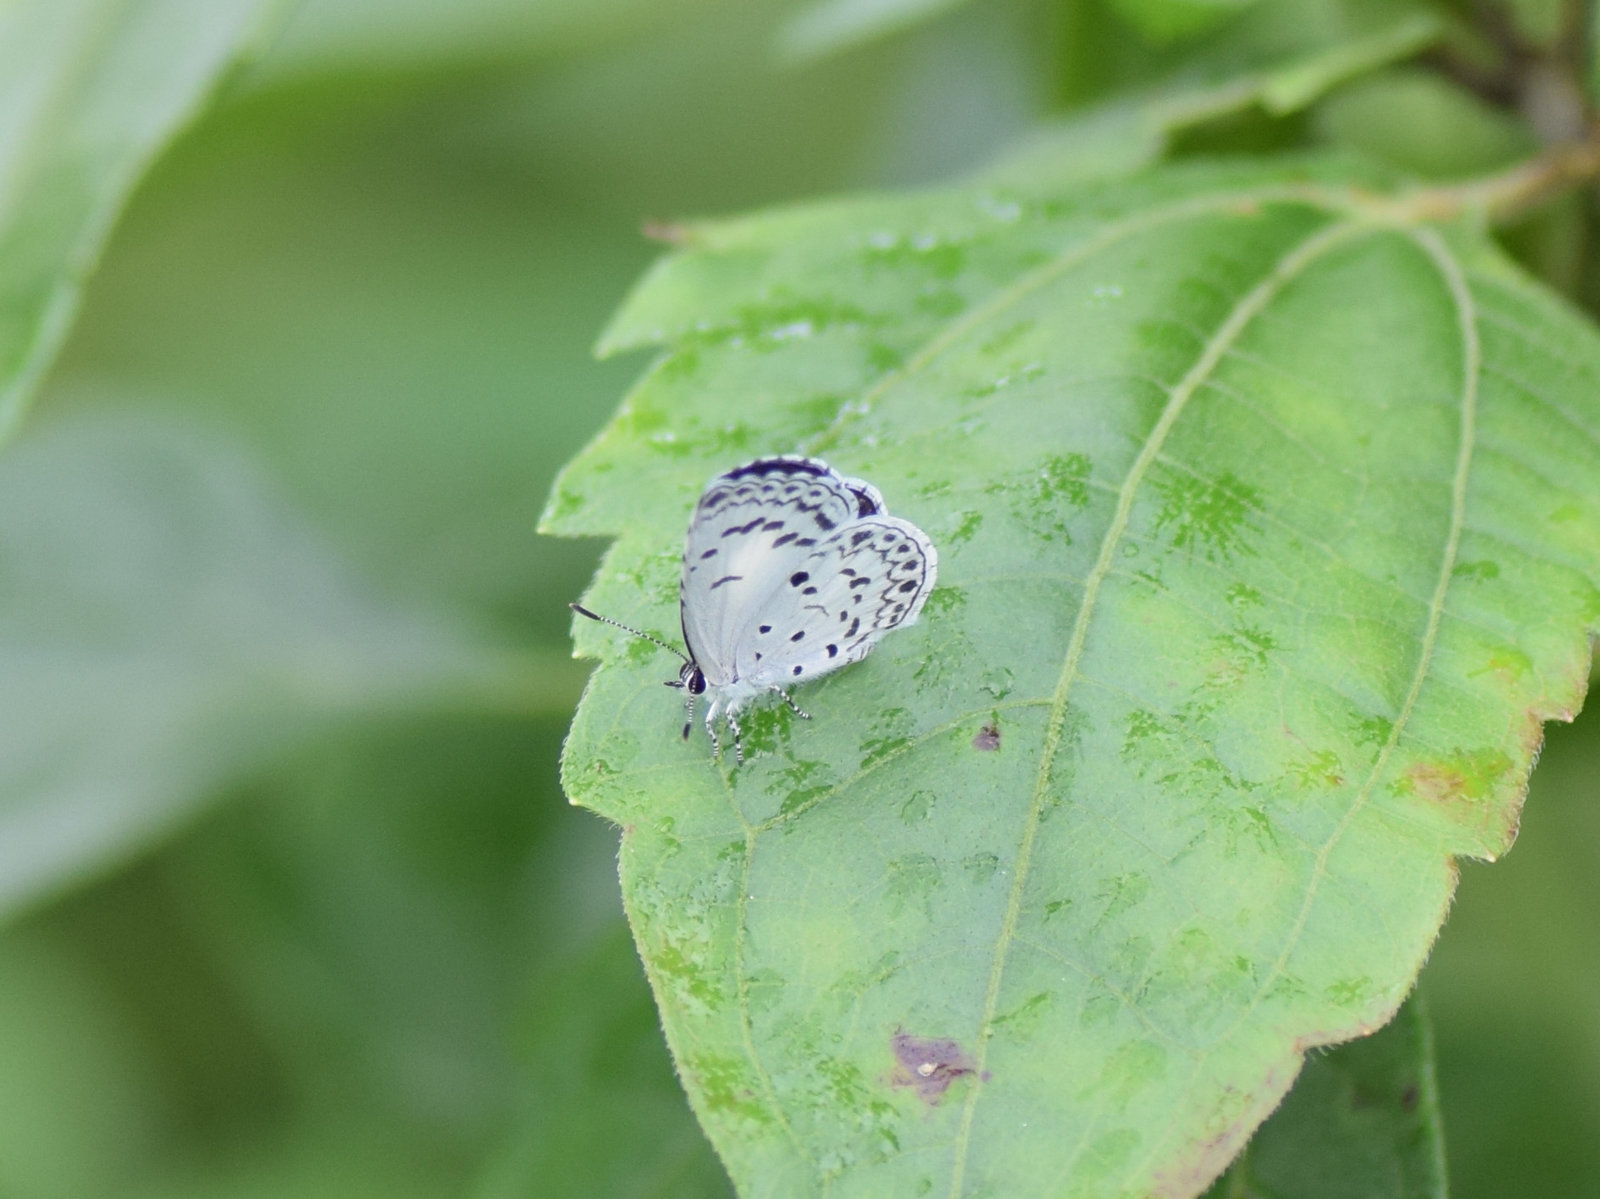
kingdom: Animalia
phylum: Arthropoda
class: Insecta
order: Lepidoptera
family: Lycaenidae
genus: Acytolepis
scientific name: Acytolepis puspa
